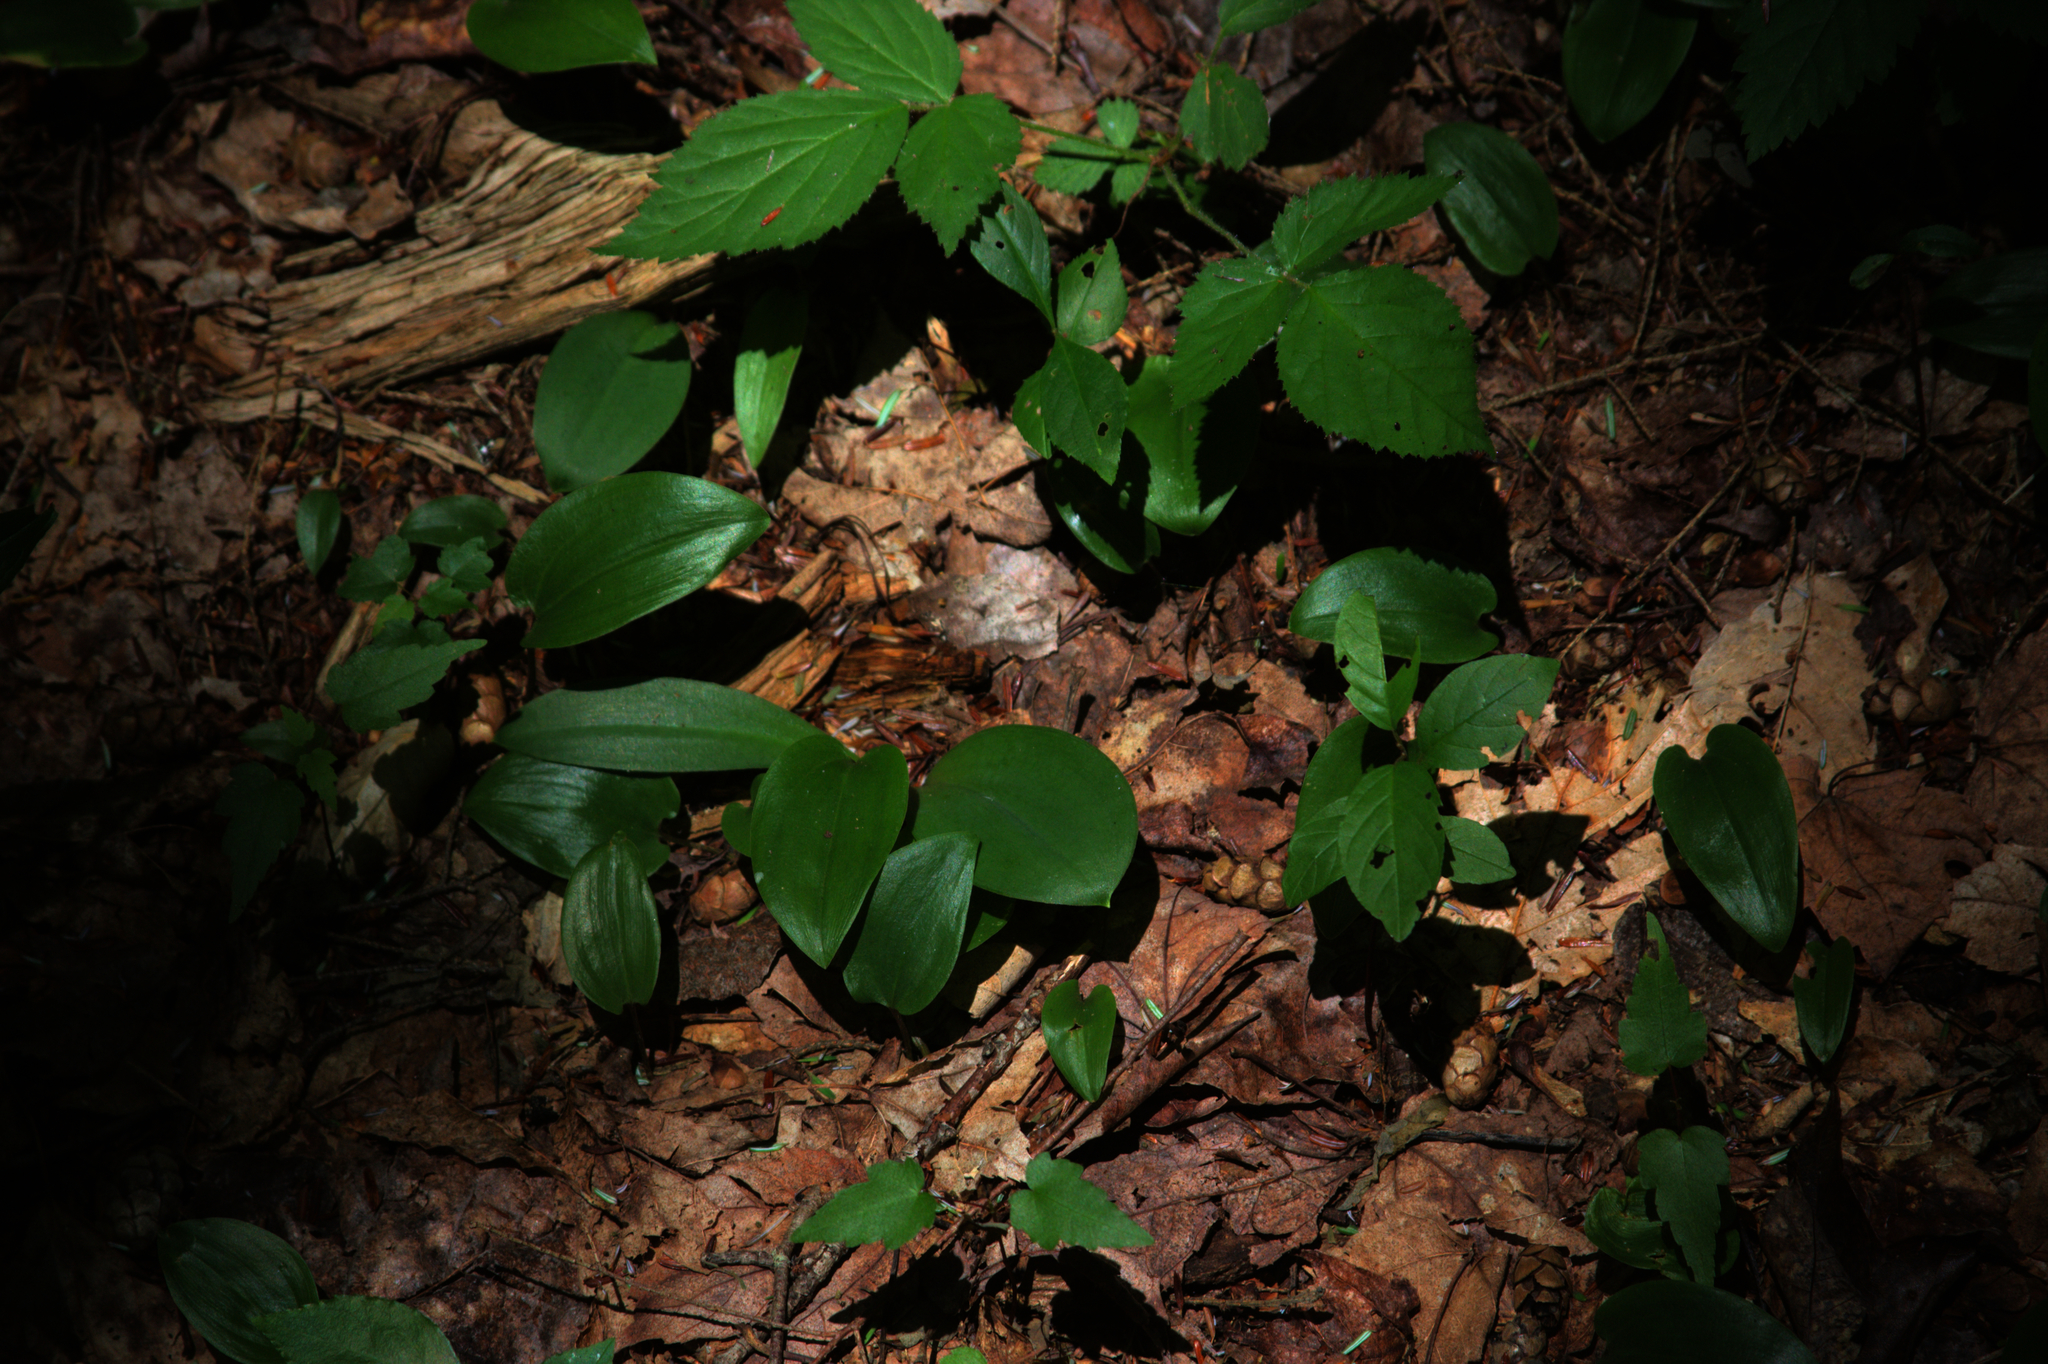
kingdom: Plantae
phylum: Tracheophyta
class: Liliopsida
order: Asparagales
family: Asparagaceae
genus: Maianthemum
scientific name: Maianthemum canadense
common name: False lily-of-the-valley
